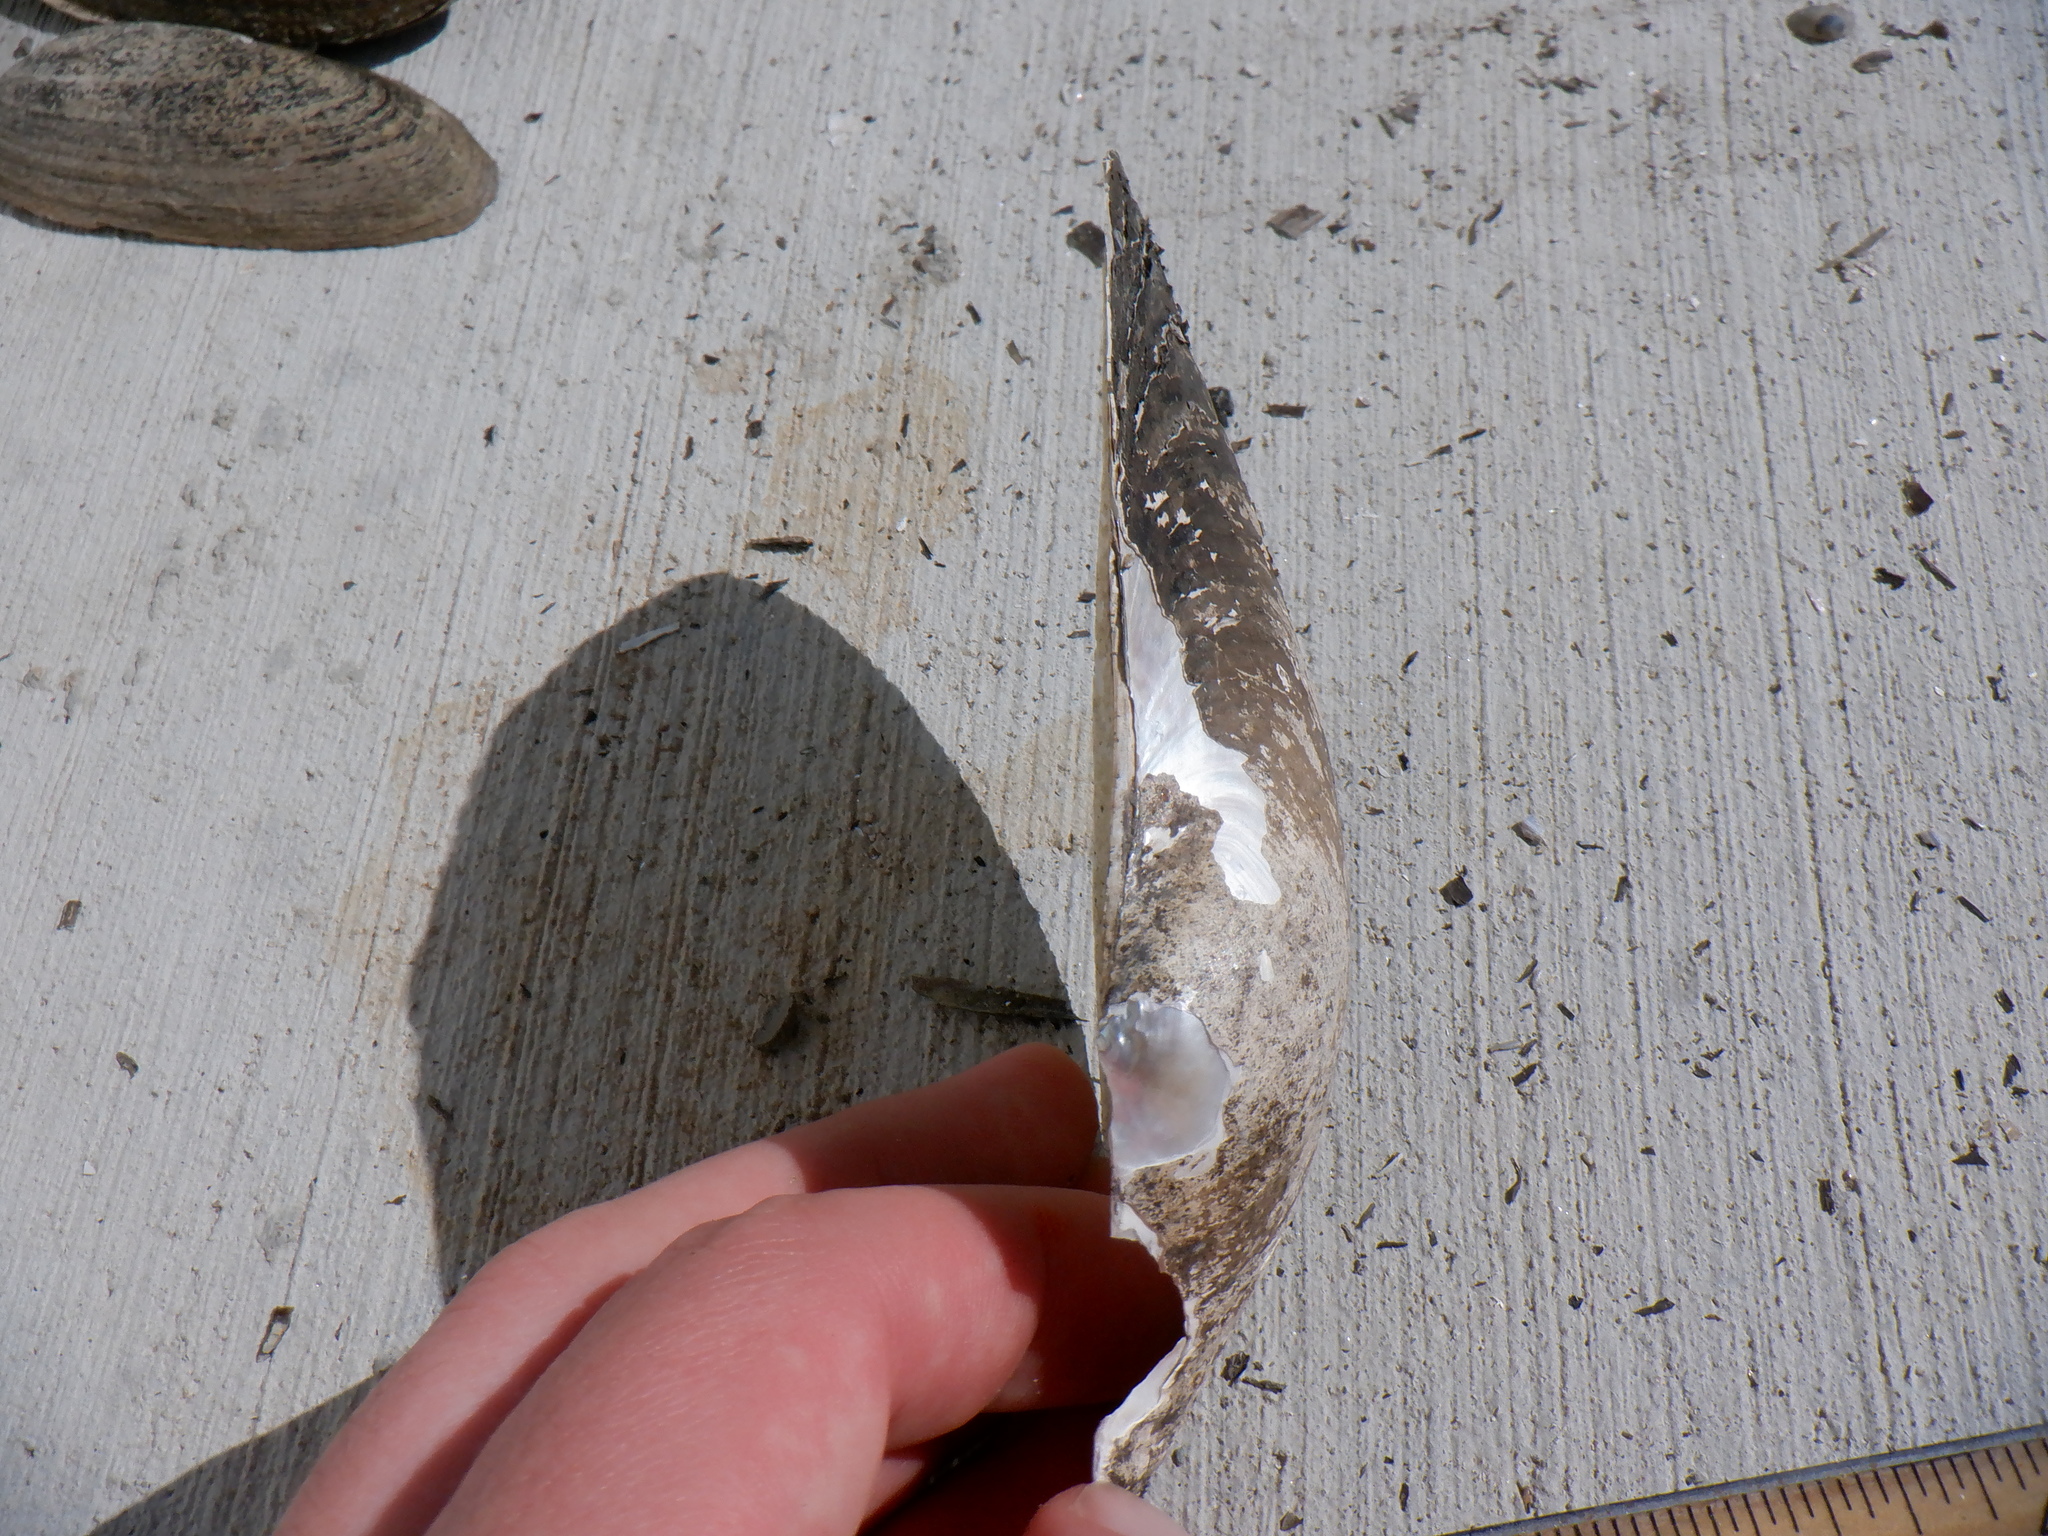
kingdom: Animalia
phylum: Mollusca
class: Bivalvia
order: Unionida
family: Unionidae
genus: Pyganodon
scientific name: Pyganodon grandis
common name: Giant floater
